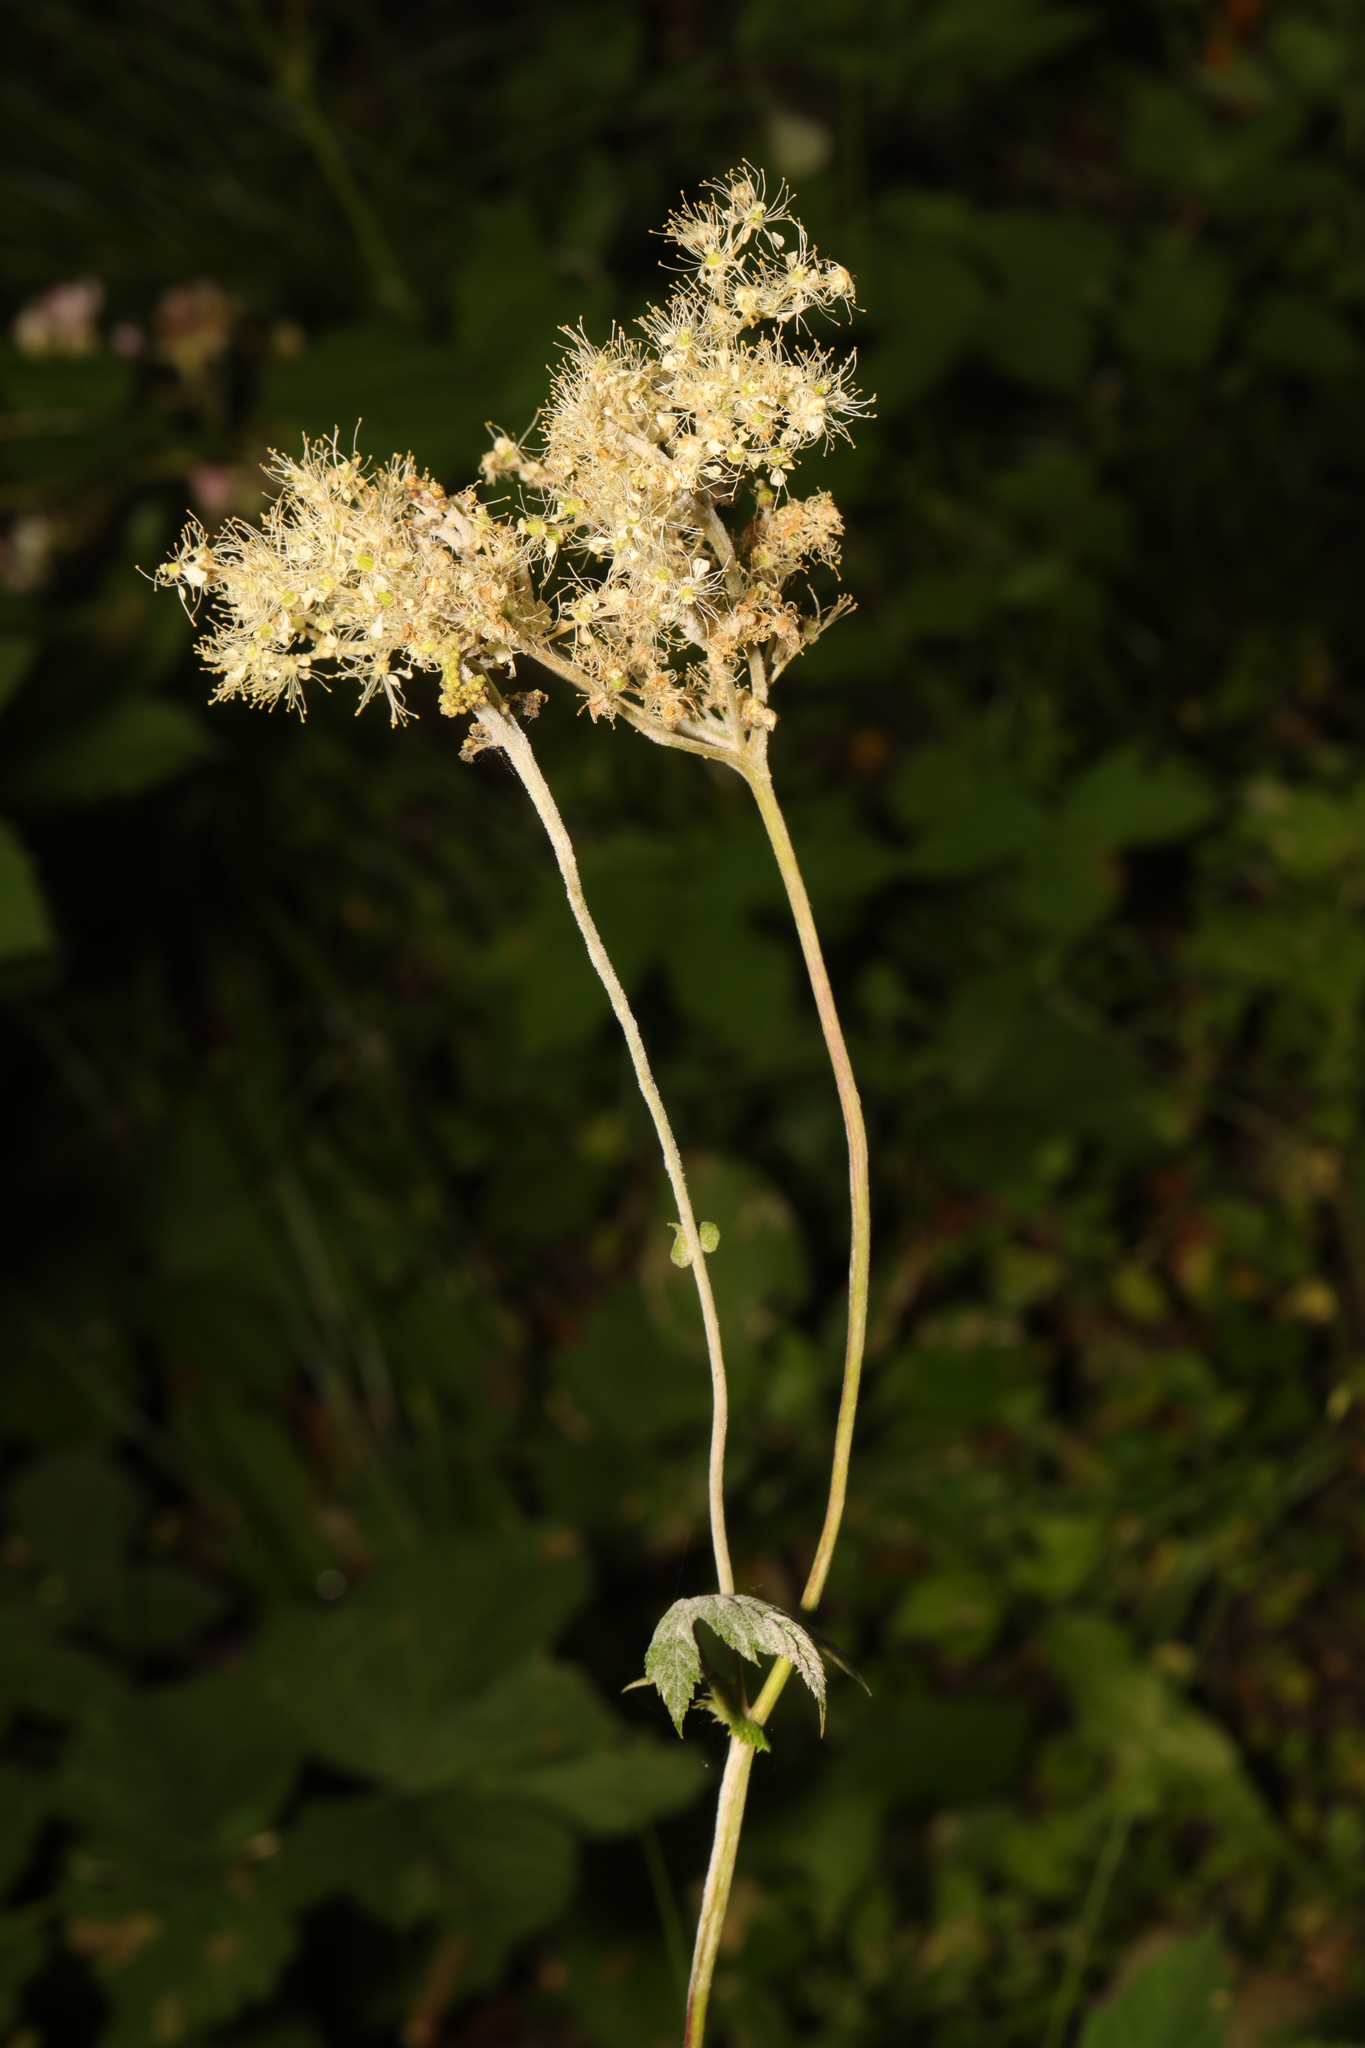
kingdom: Plantae
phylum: Tracheophyta
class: Magnoliopsida
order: Rosales
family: Rosaceae
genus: Filipendula
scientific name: Filipendula ulmaria
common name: Meadowsweet
